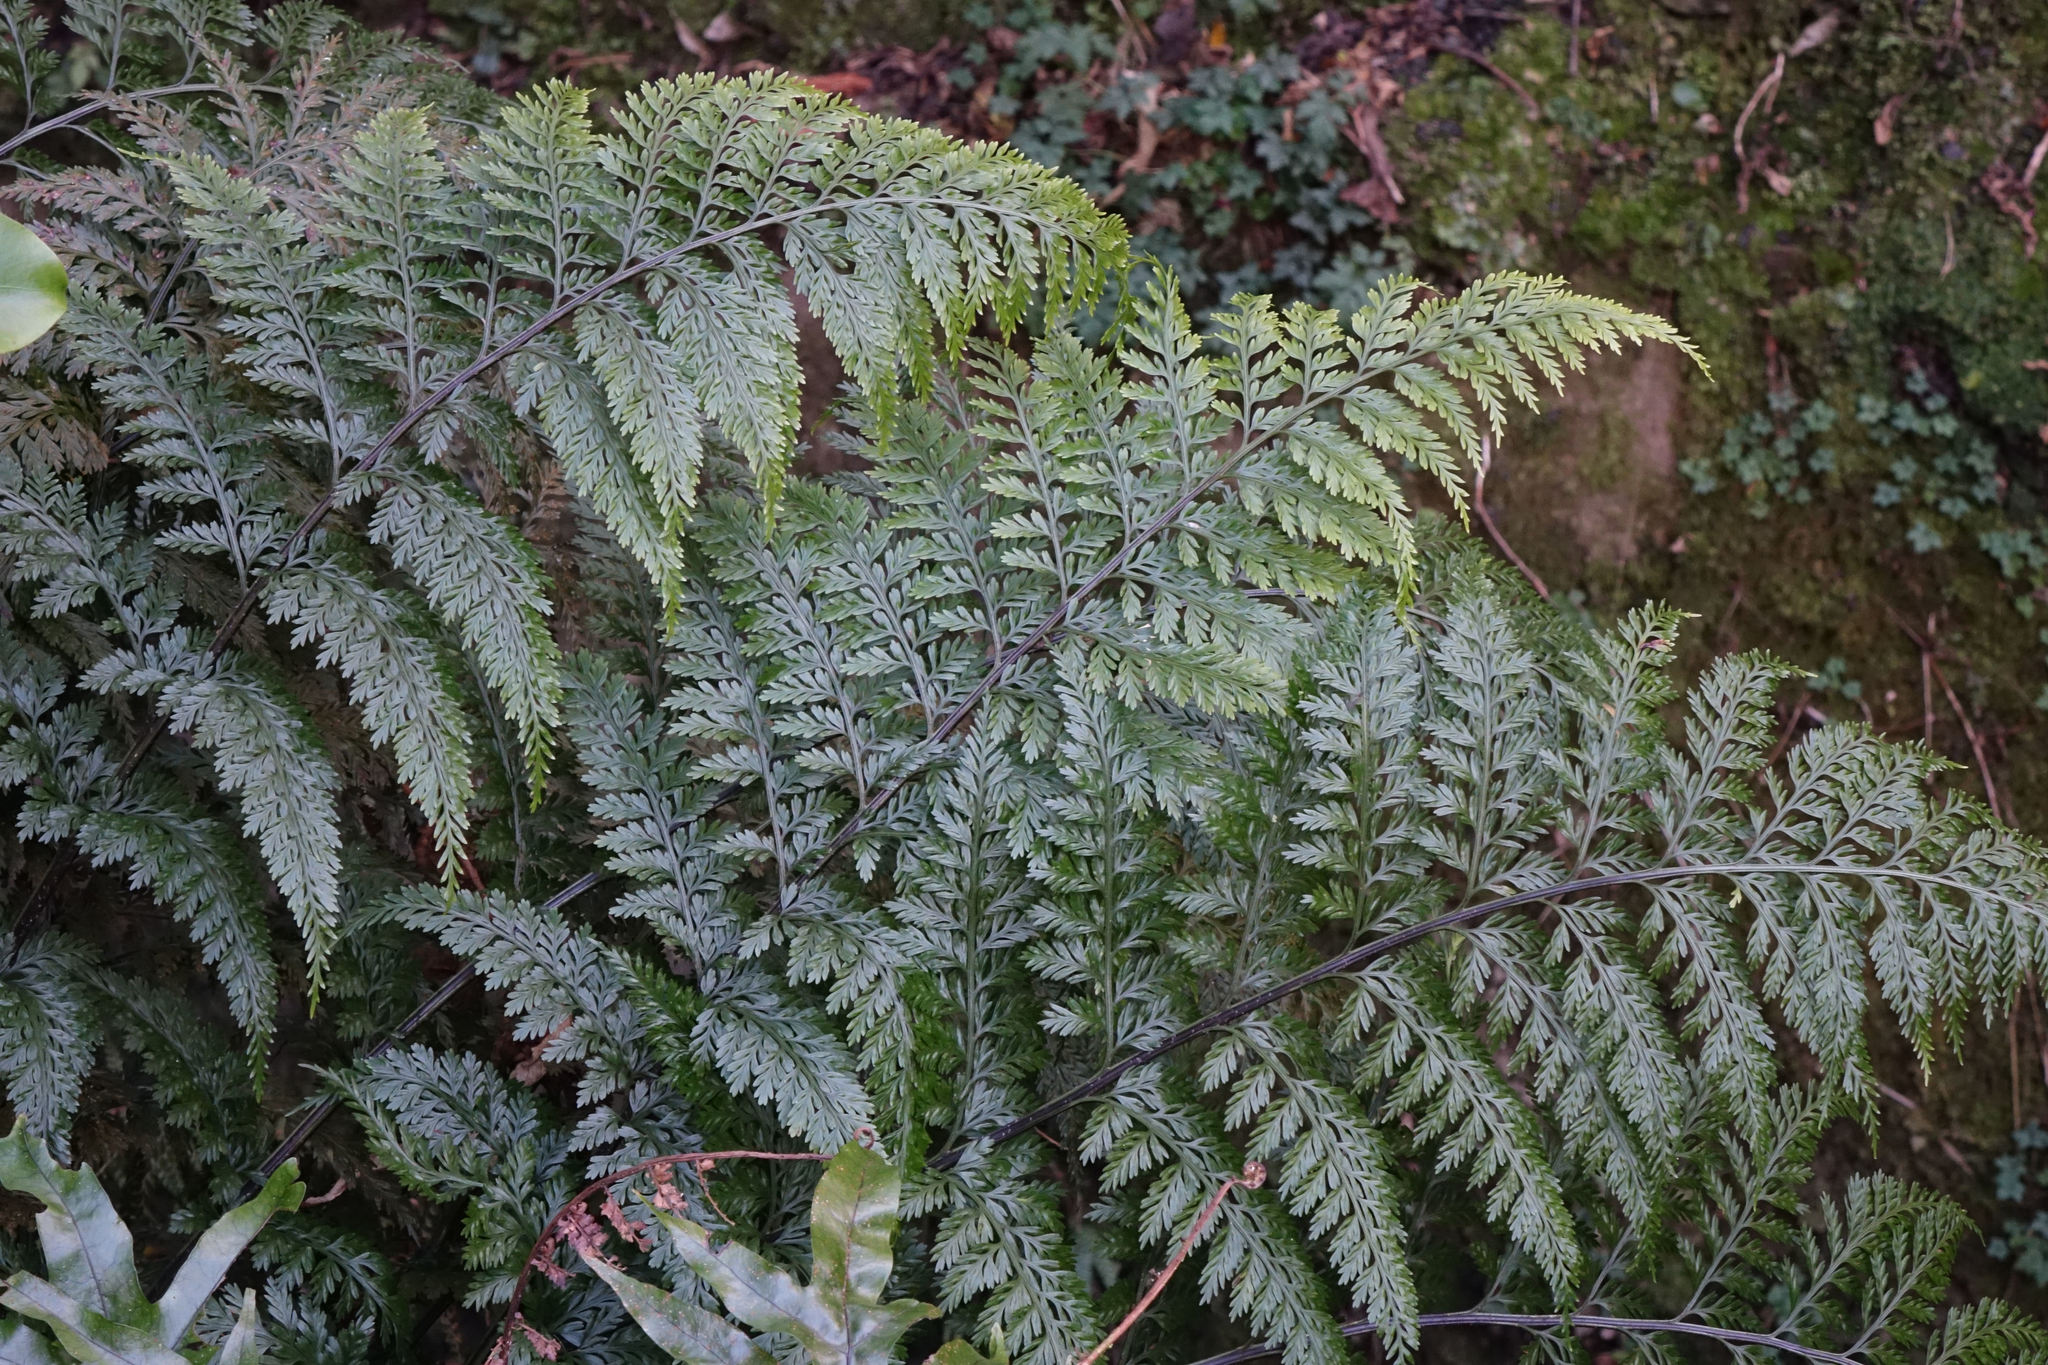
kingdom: Plantae
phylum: Tracheophyta
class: Polypodiopsida
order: Polypodiales
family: Aspleniaceae
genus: Asplenium
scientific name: Asplenium
